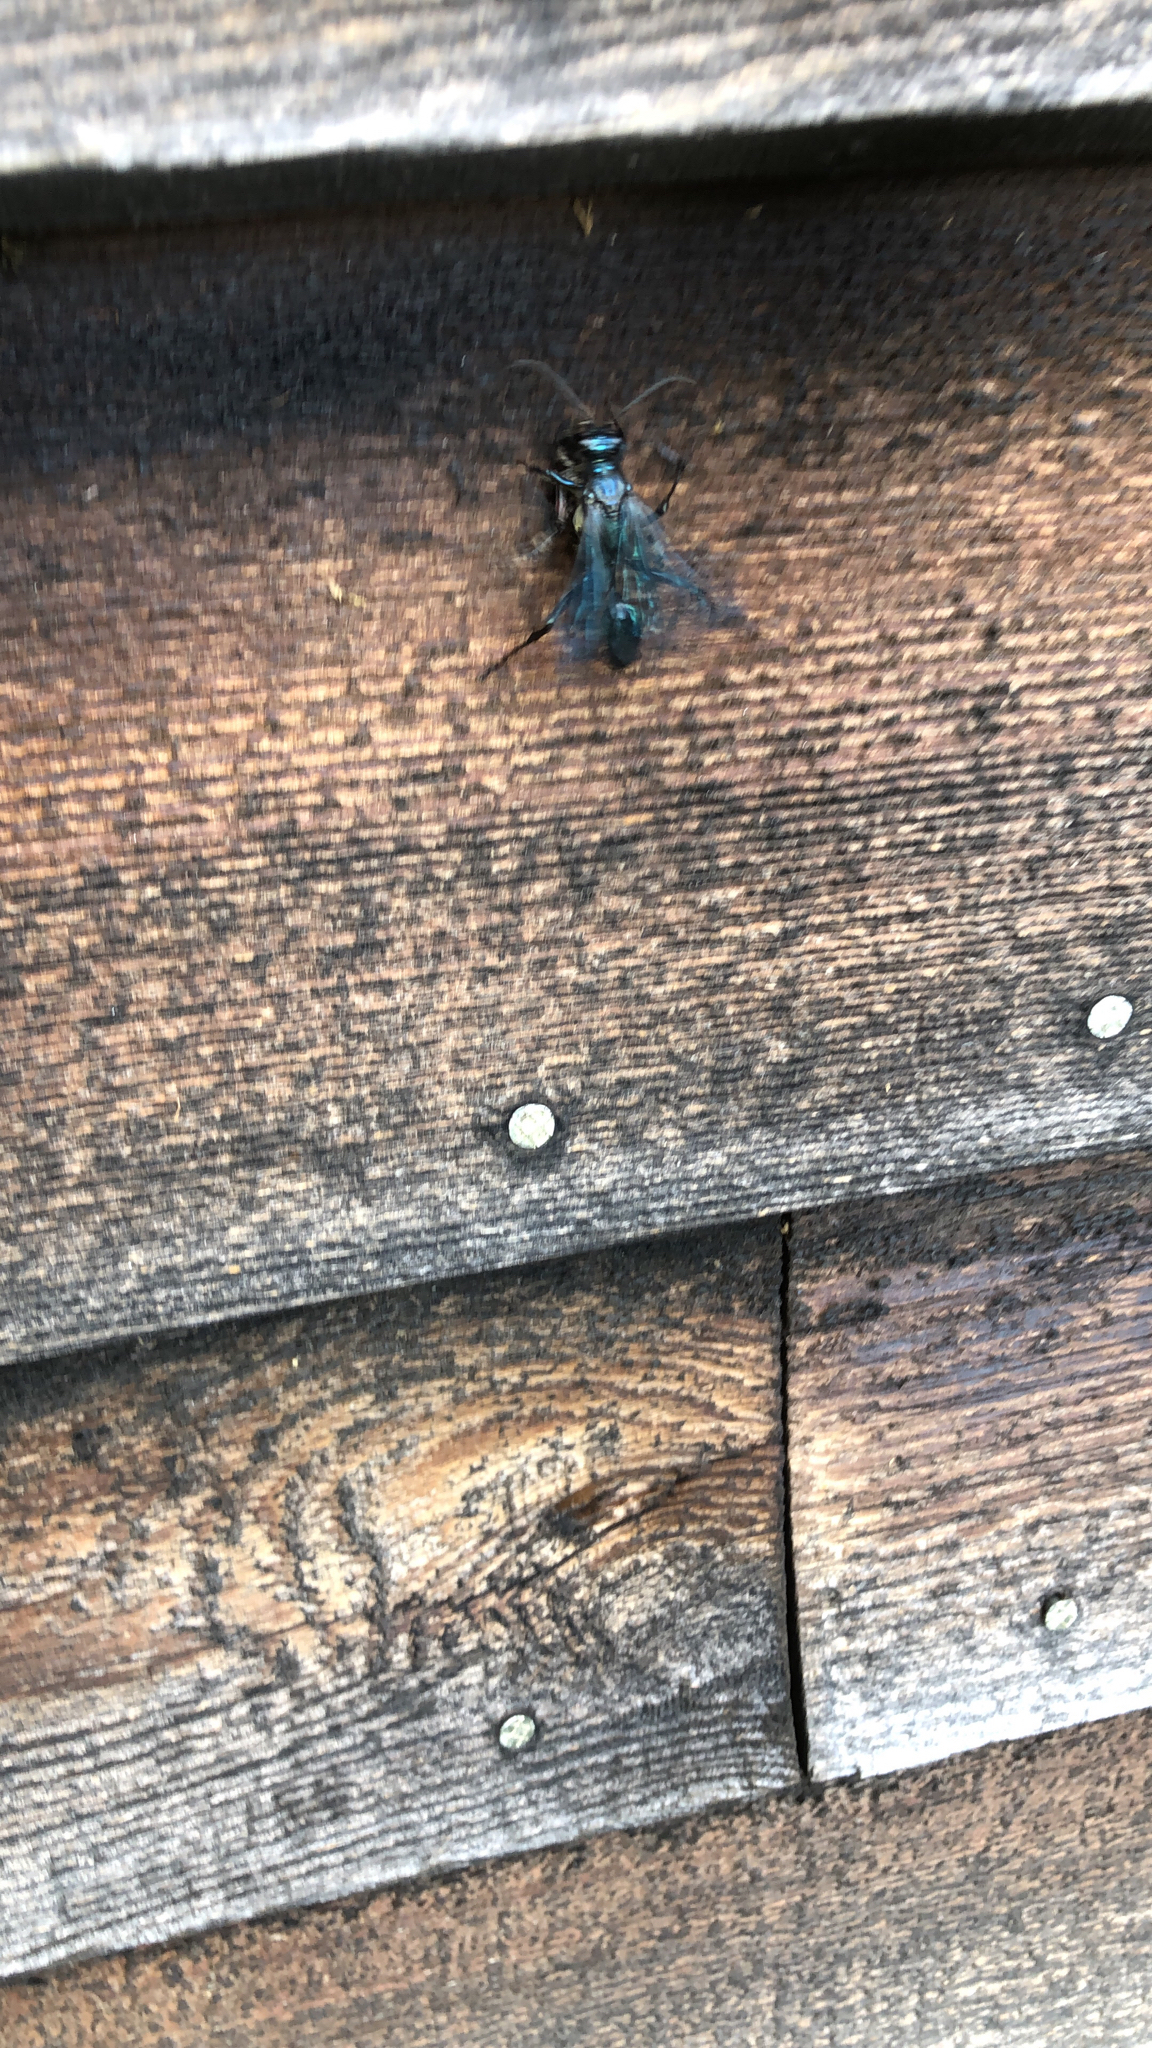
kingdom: Animalia
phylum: Arthropoda
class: Insecta
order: Hymenoptera
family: Sphecidae
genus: Chalybion
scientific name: Chalybion californicum
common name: Mud dauber
